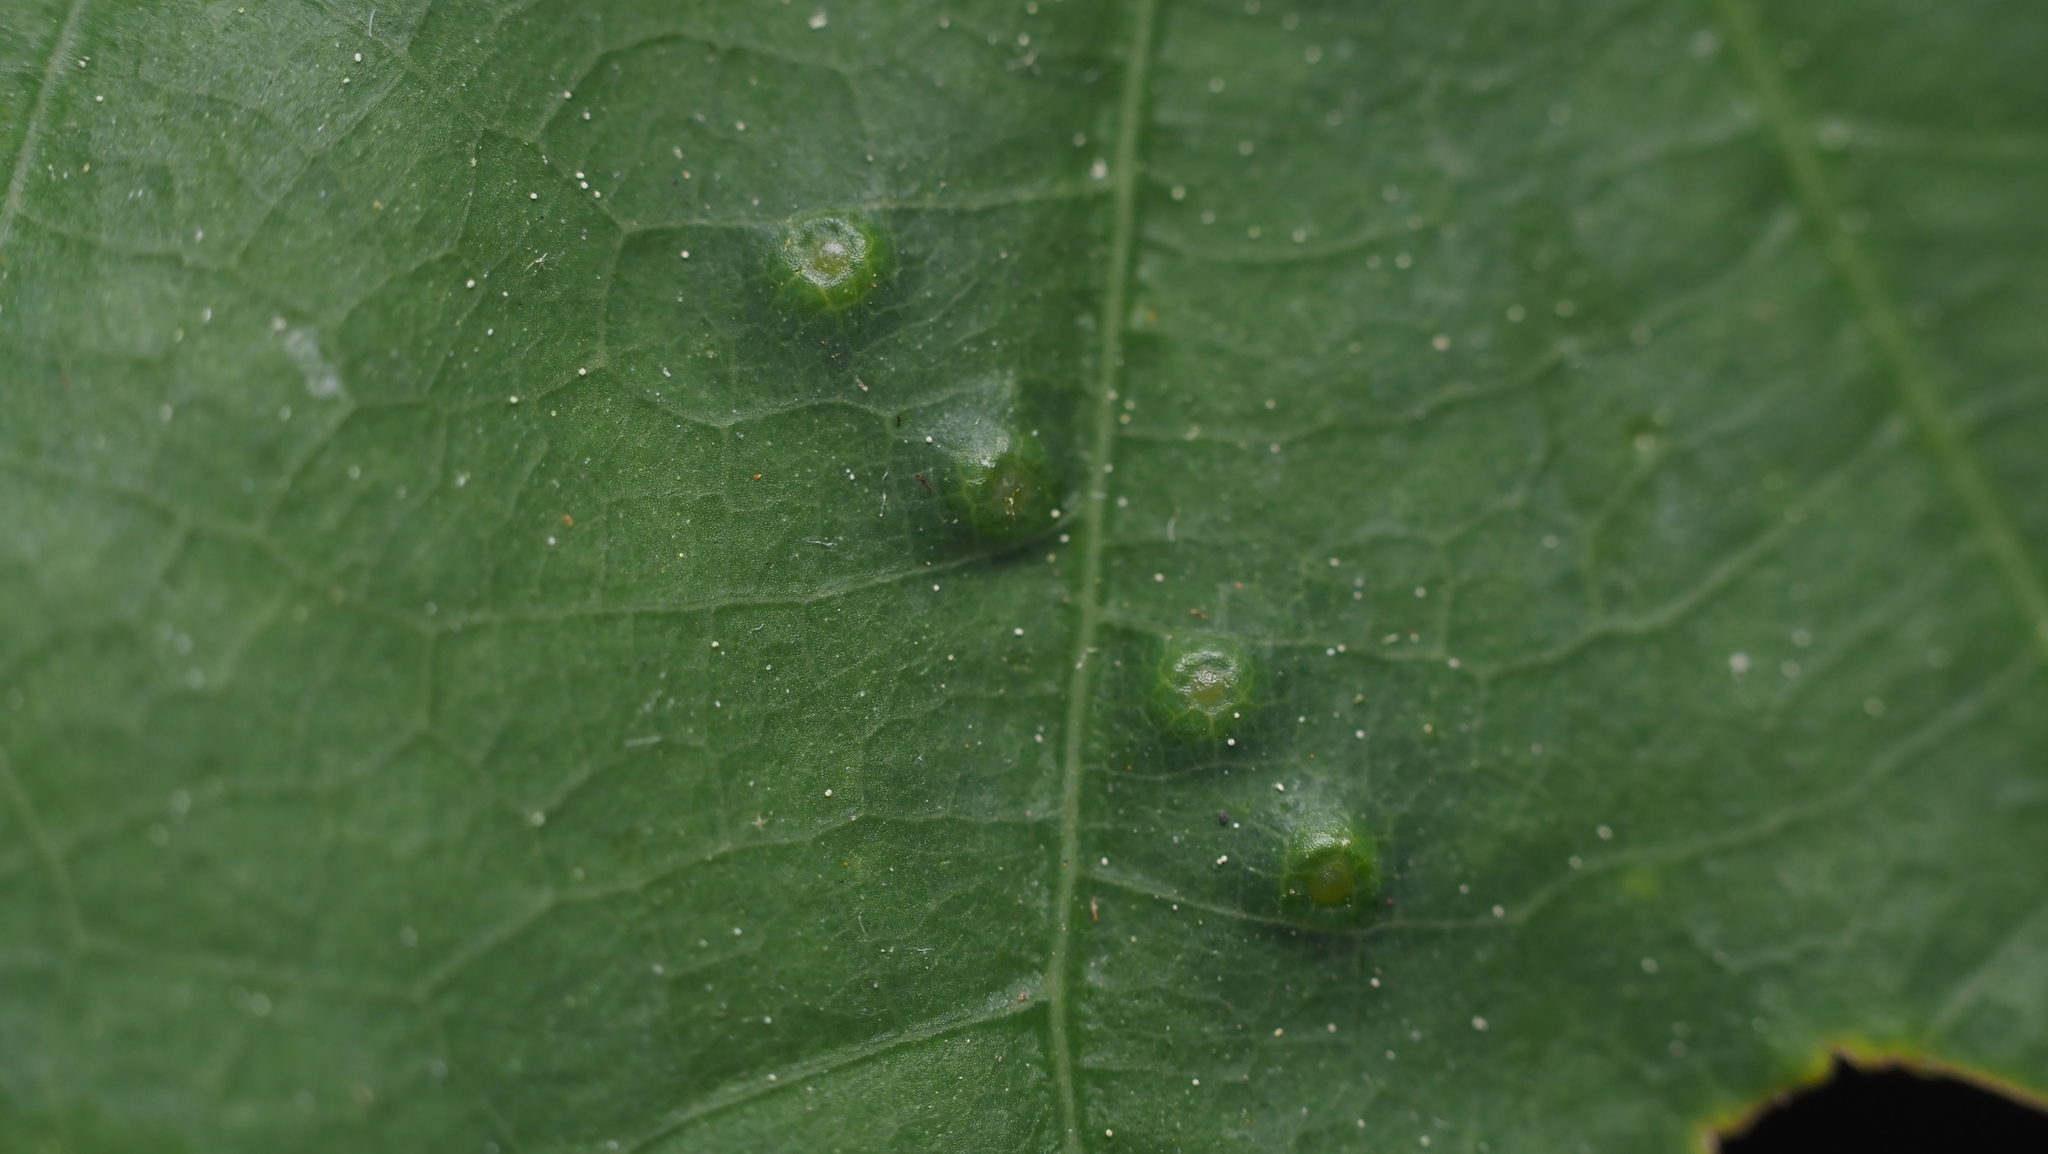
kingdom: Animalia
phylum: Arthropoda
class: Insecta
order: Hymenoptera
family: Cynipidae
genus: Neuroterus
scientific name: Neuroterus
